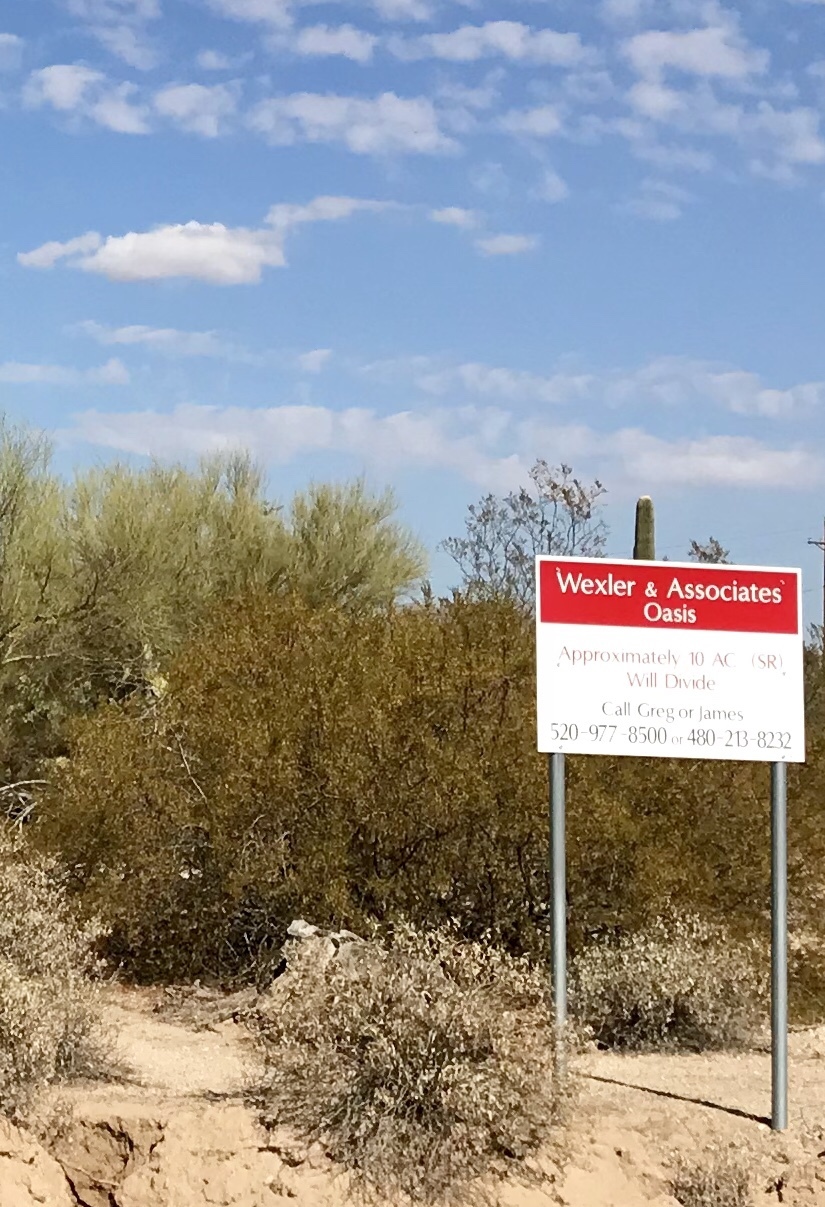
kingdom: Plantae
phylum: Tracheophyta
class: Magnoliopsida
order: Zygophyllales
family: Zygophyllaceae
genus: Larrea
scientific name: Larrea tridentata
